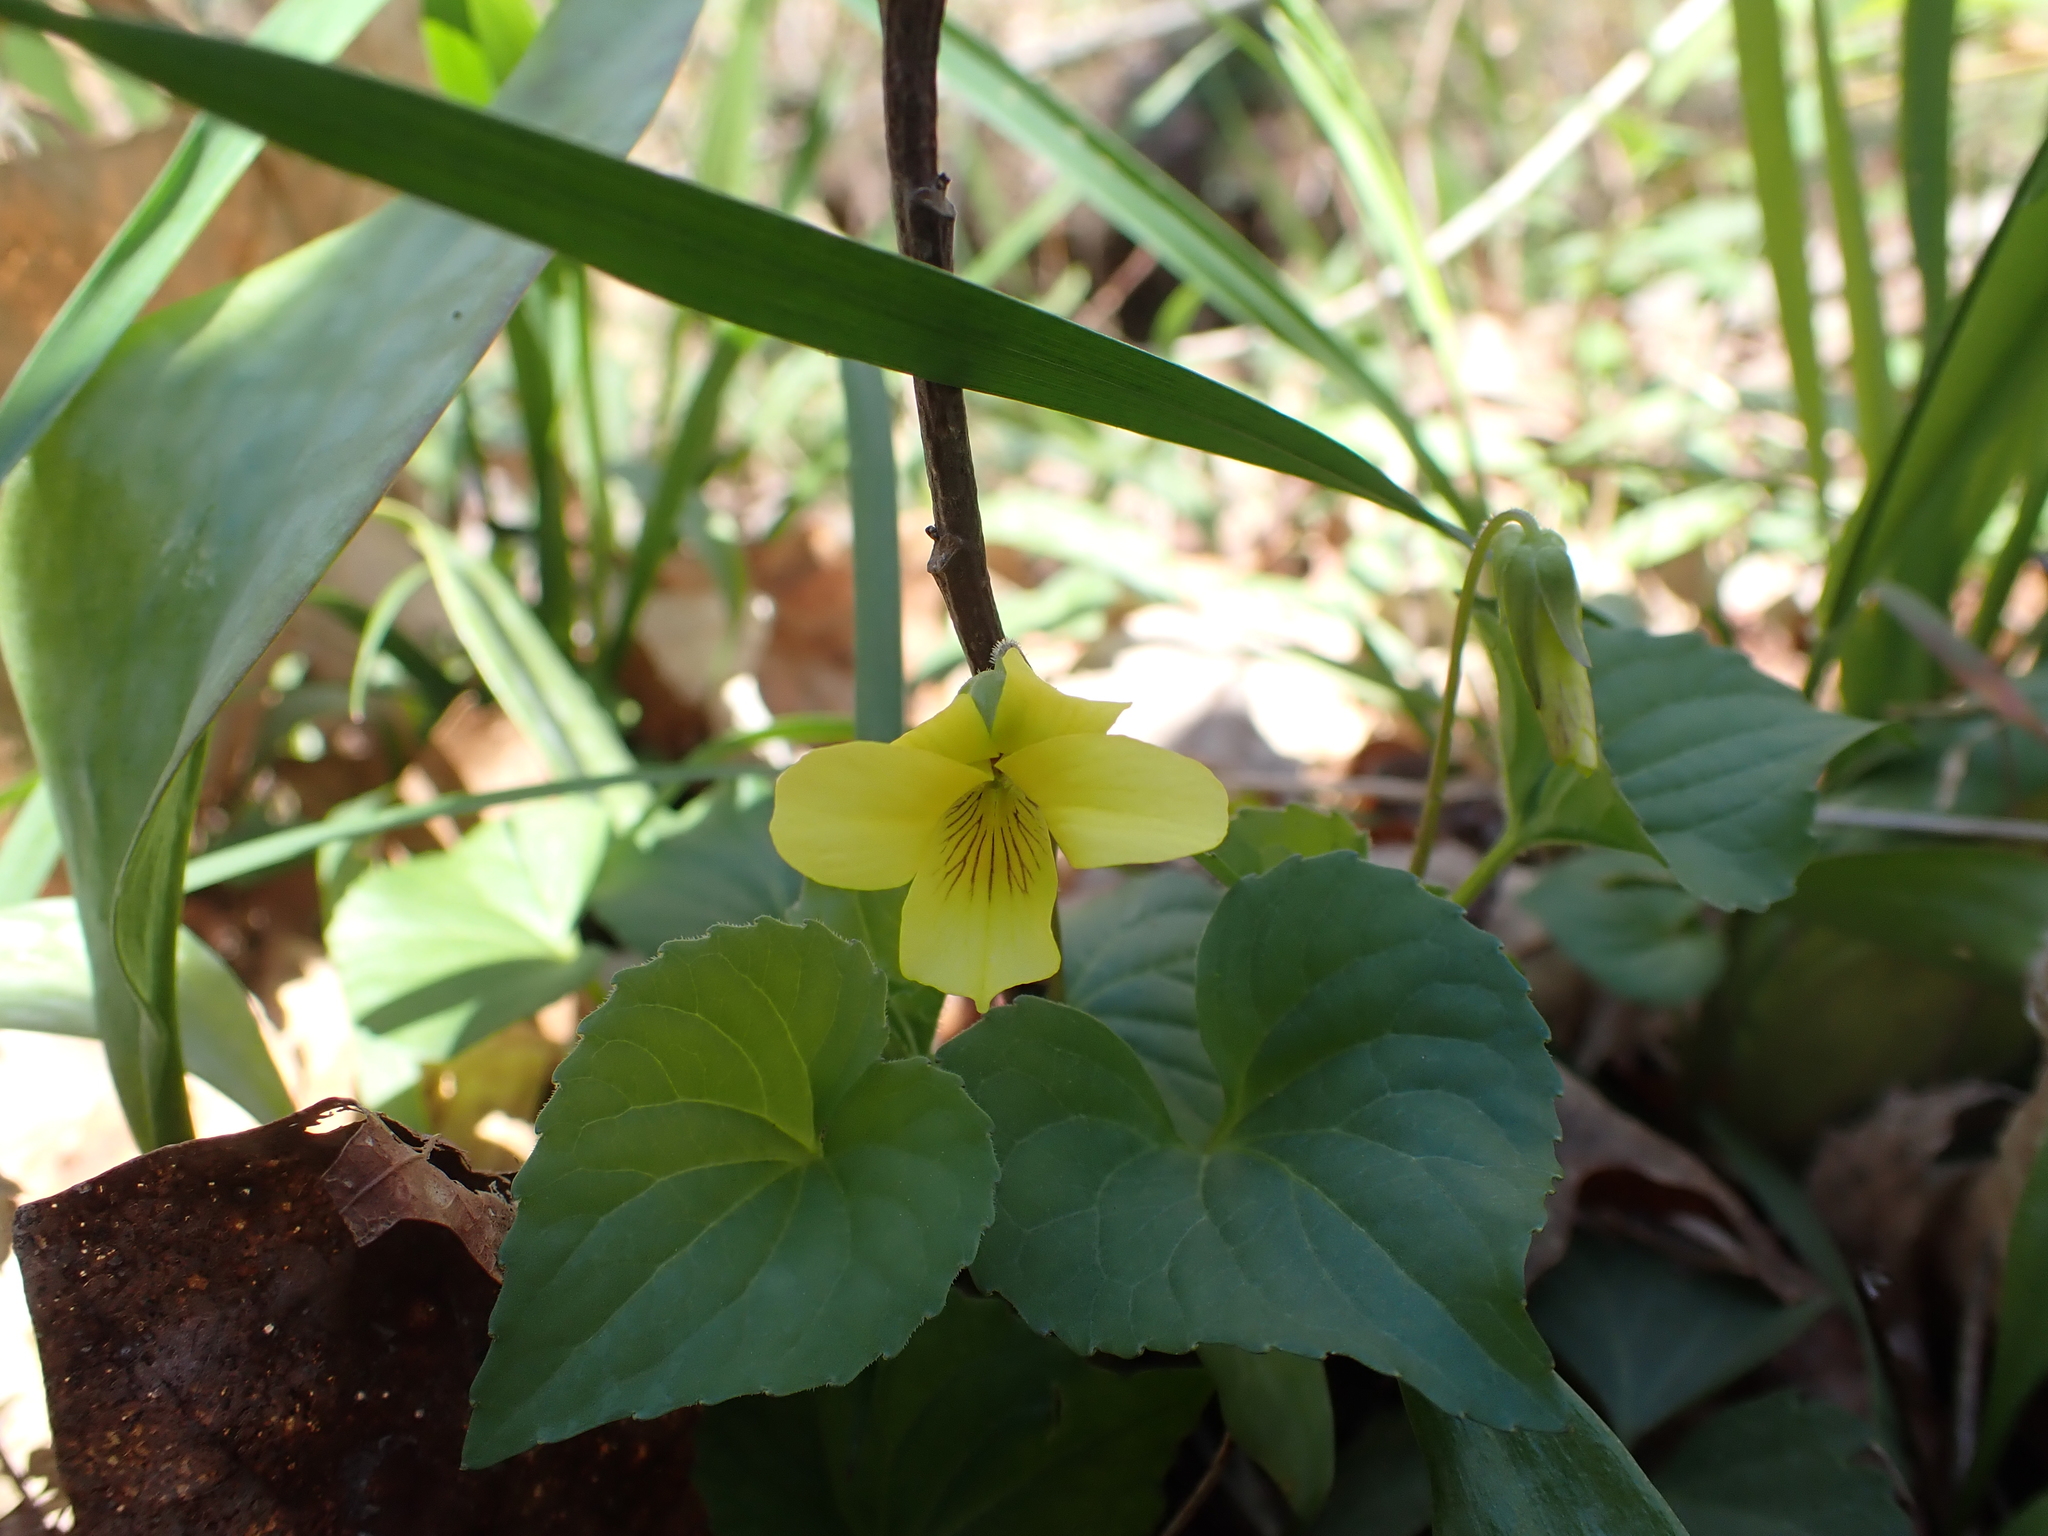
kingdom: Plantae
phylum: Tracheophyta
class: Magnoliopsida
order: Malpighiales
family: Violaceae
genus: Viola
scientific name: Viola eriocarpa
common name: Smooth yellow violet
